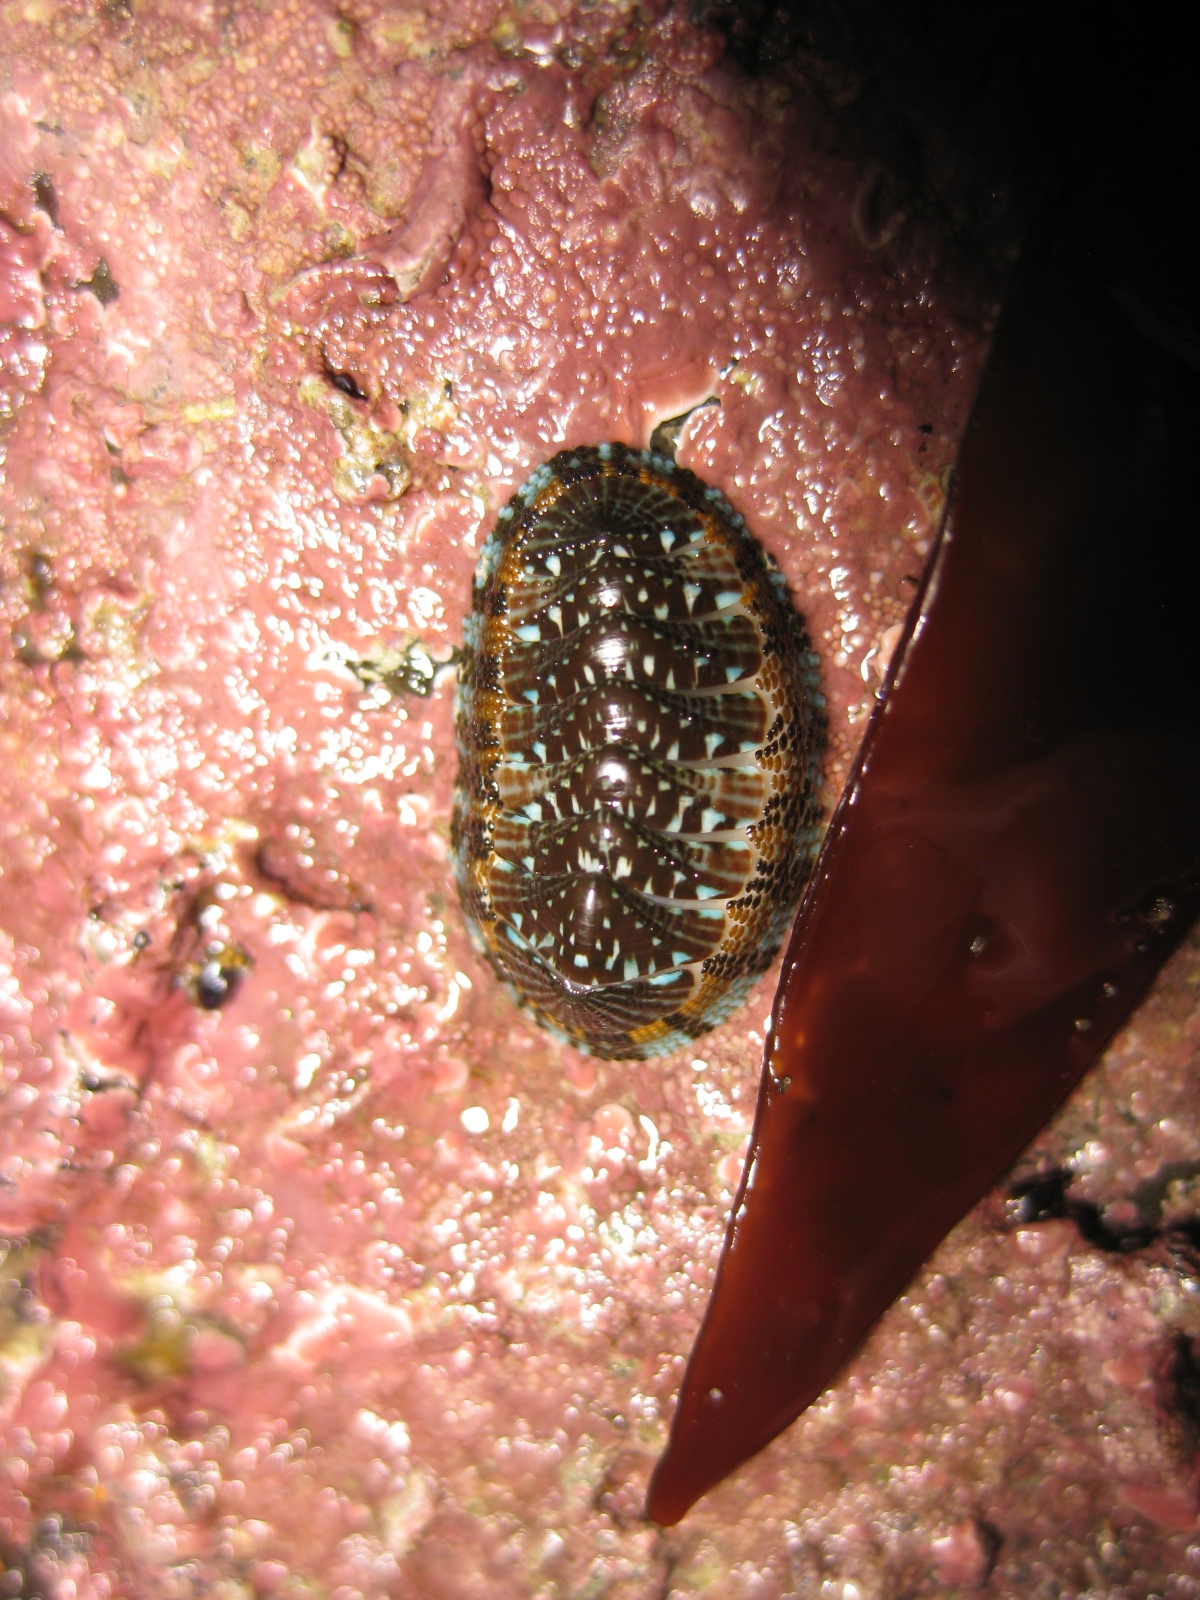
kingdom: Animalia
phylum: Mollusca
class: Polyplacophora
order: Chitonida
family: Chitonidae
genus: Sypharochiton
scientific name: Sypharochiton sinclairi
